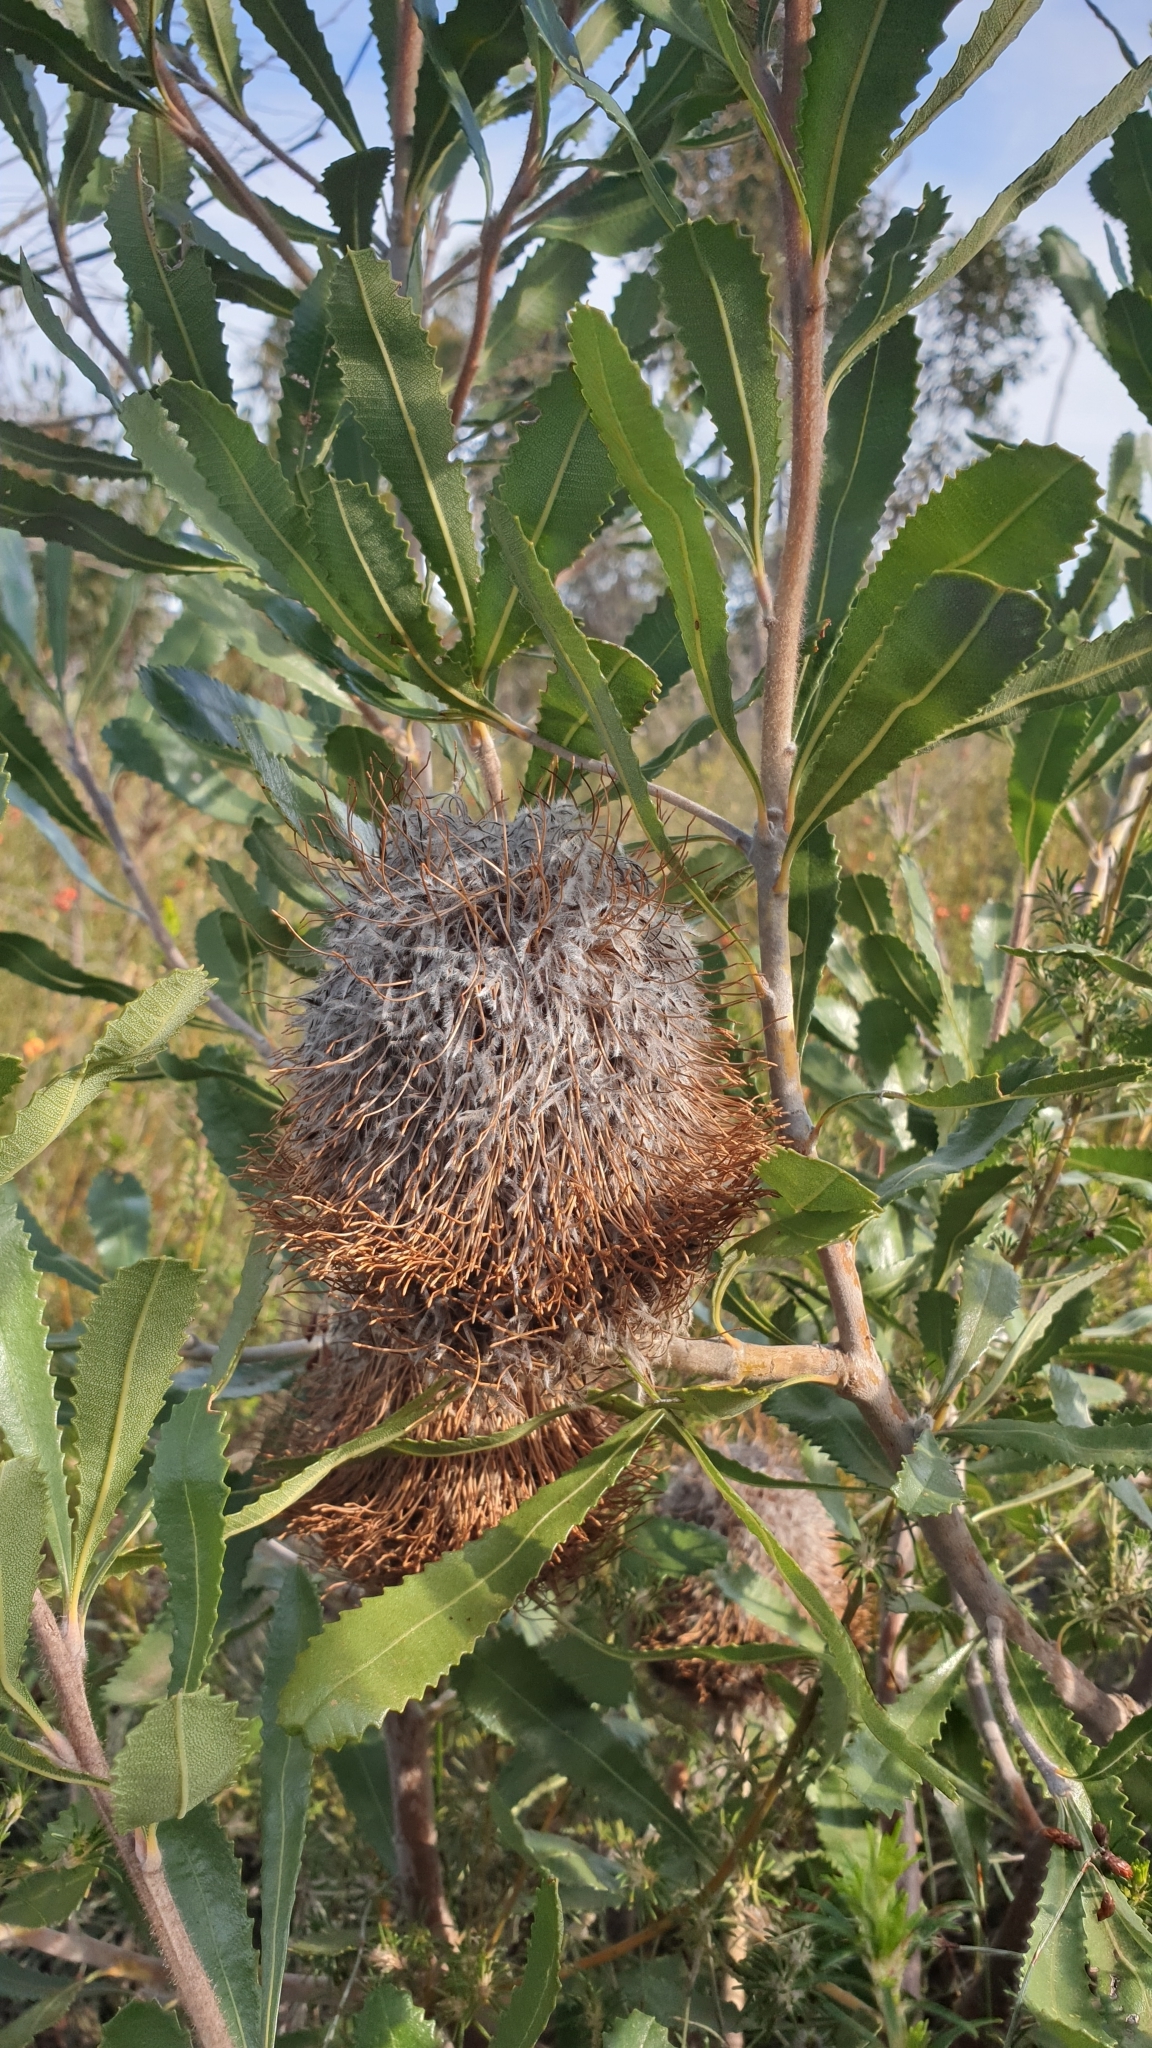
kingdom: Plantae
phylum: Tracheophyta
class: Magnoliopsida
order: Proteales
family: Proteaceae
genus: Banksia
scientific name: Banksia ornata
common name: Desert banksia
